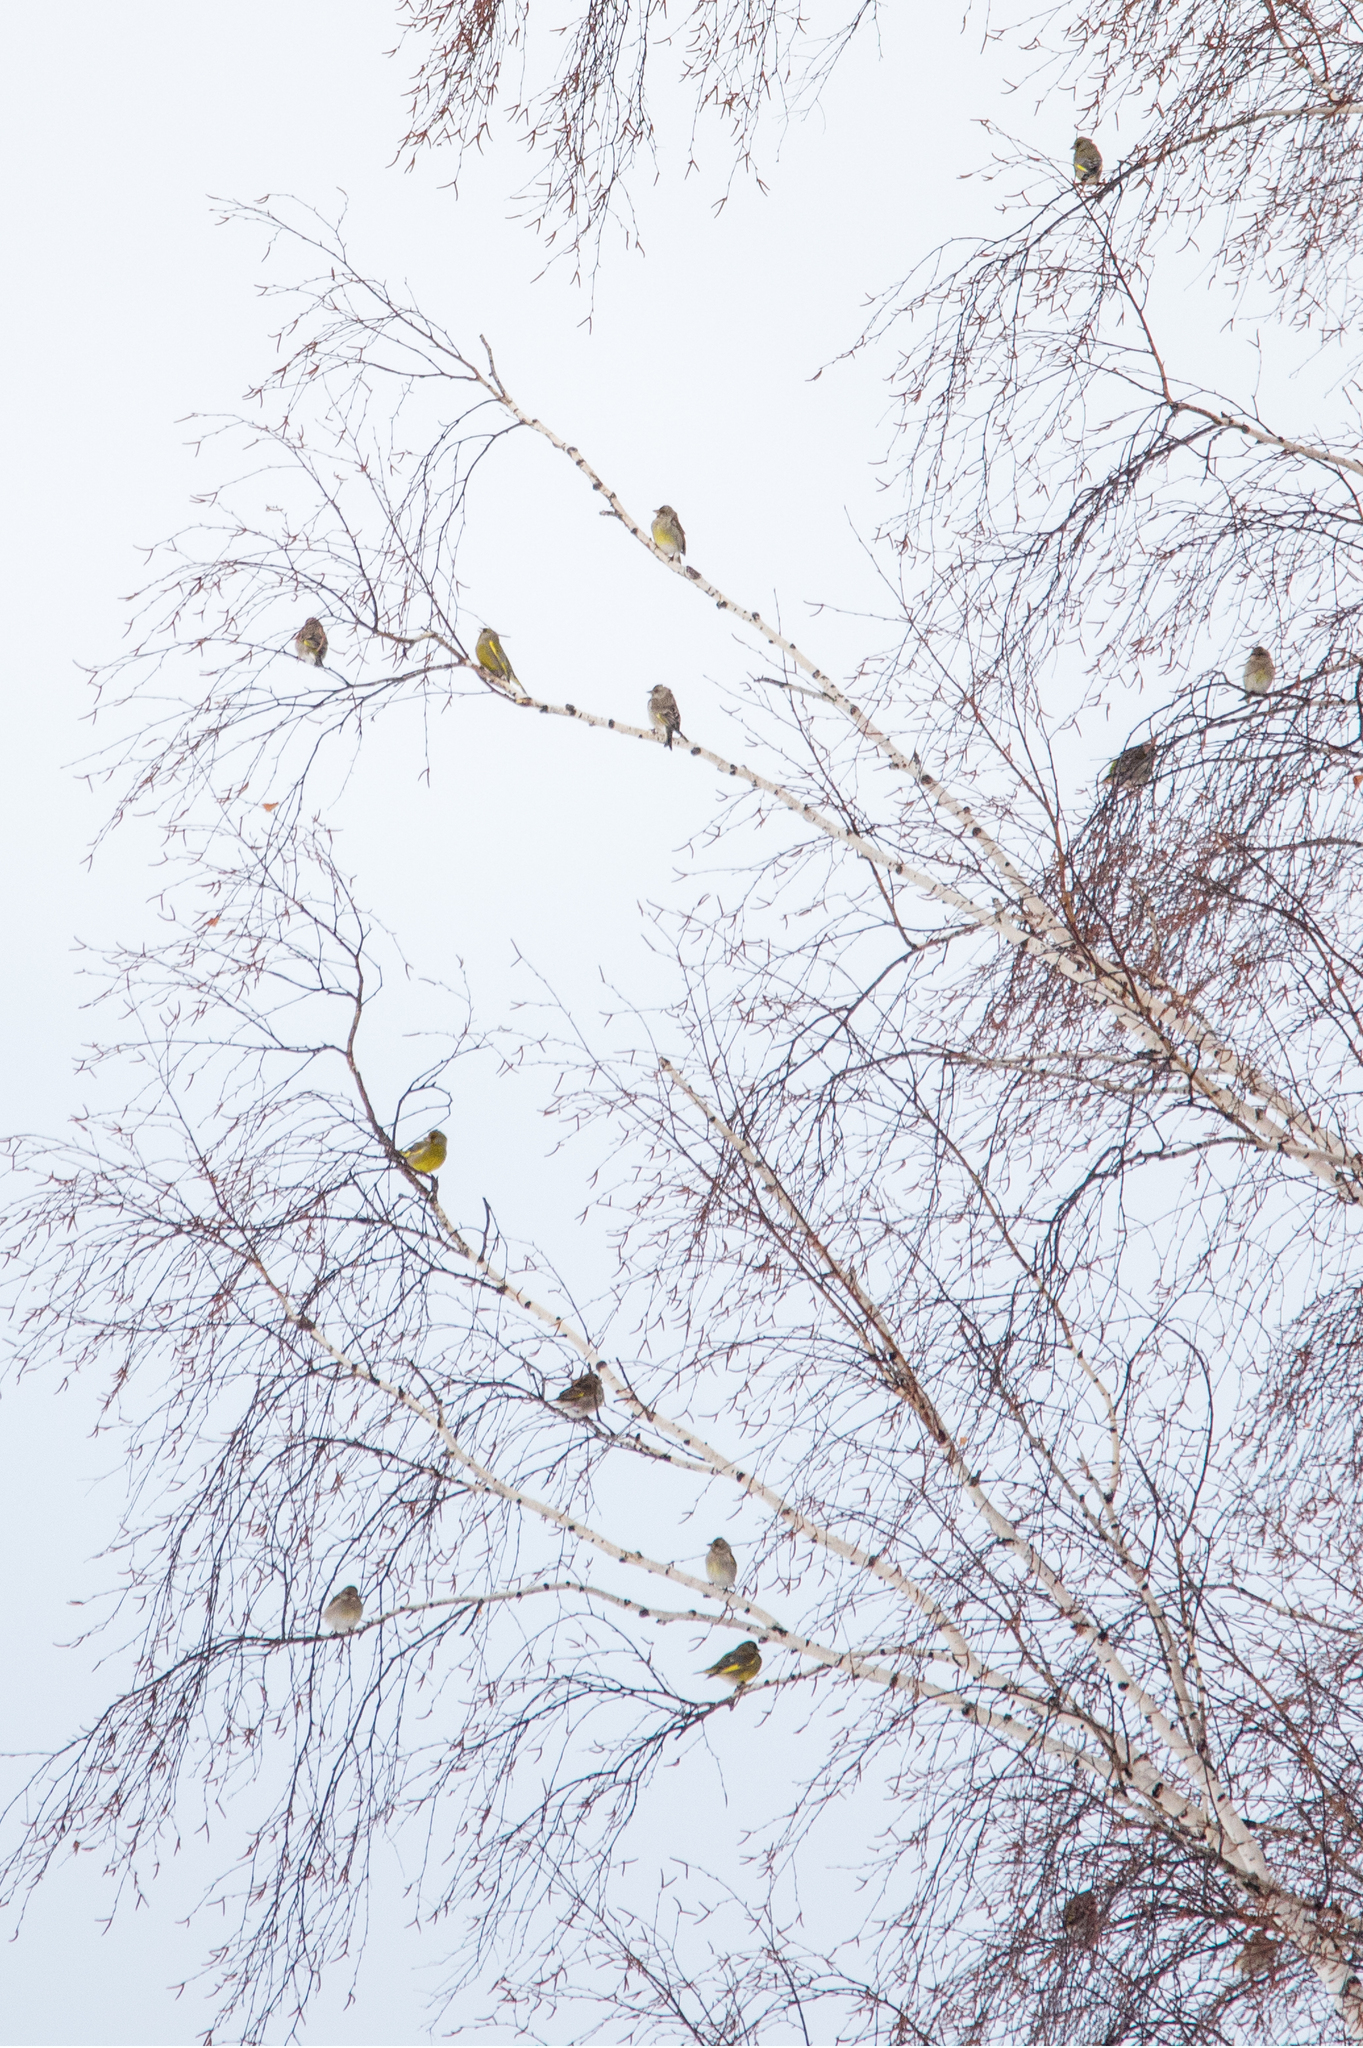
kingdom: Plantae
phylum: Tracheophyta
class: Liliopsida
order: Poales
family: Poaceae
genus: Chloris
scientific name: Chloris chloris
